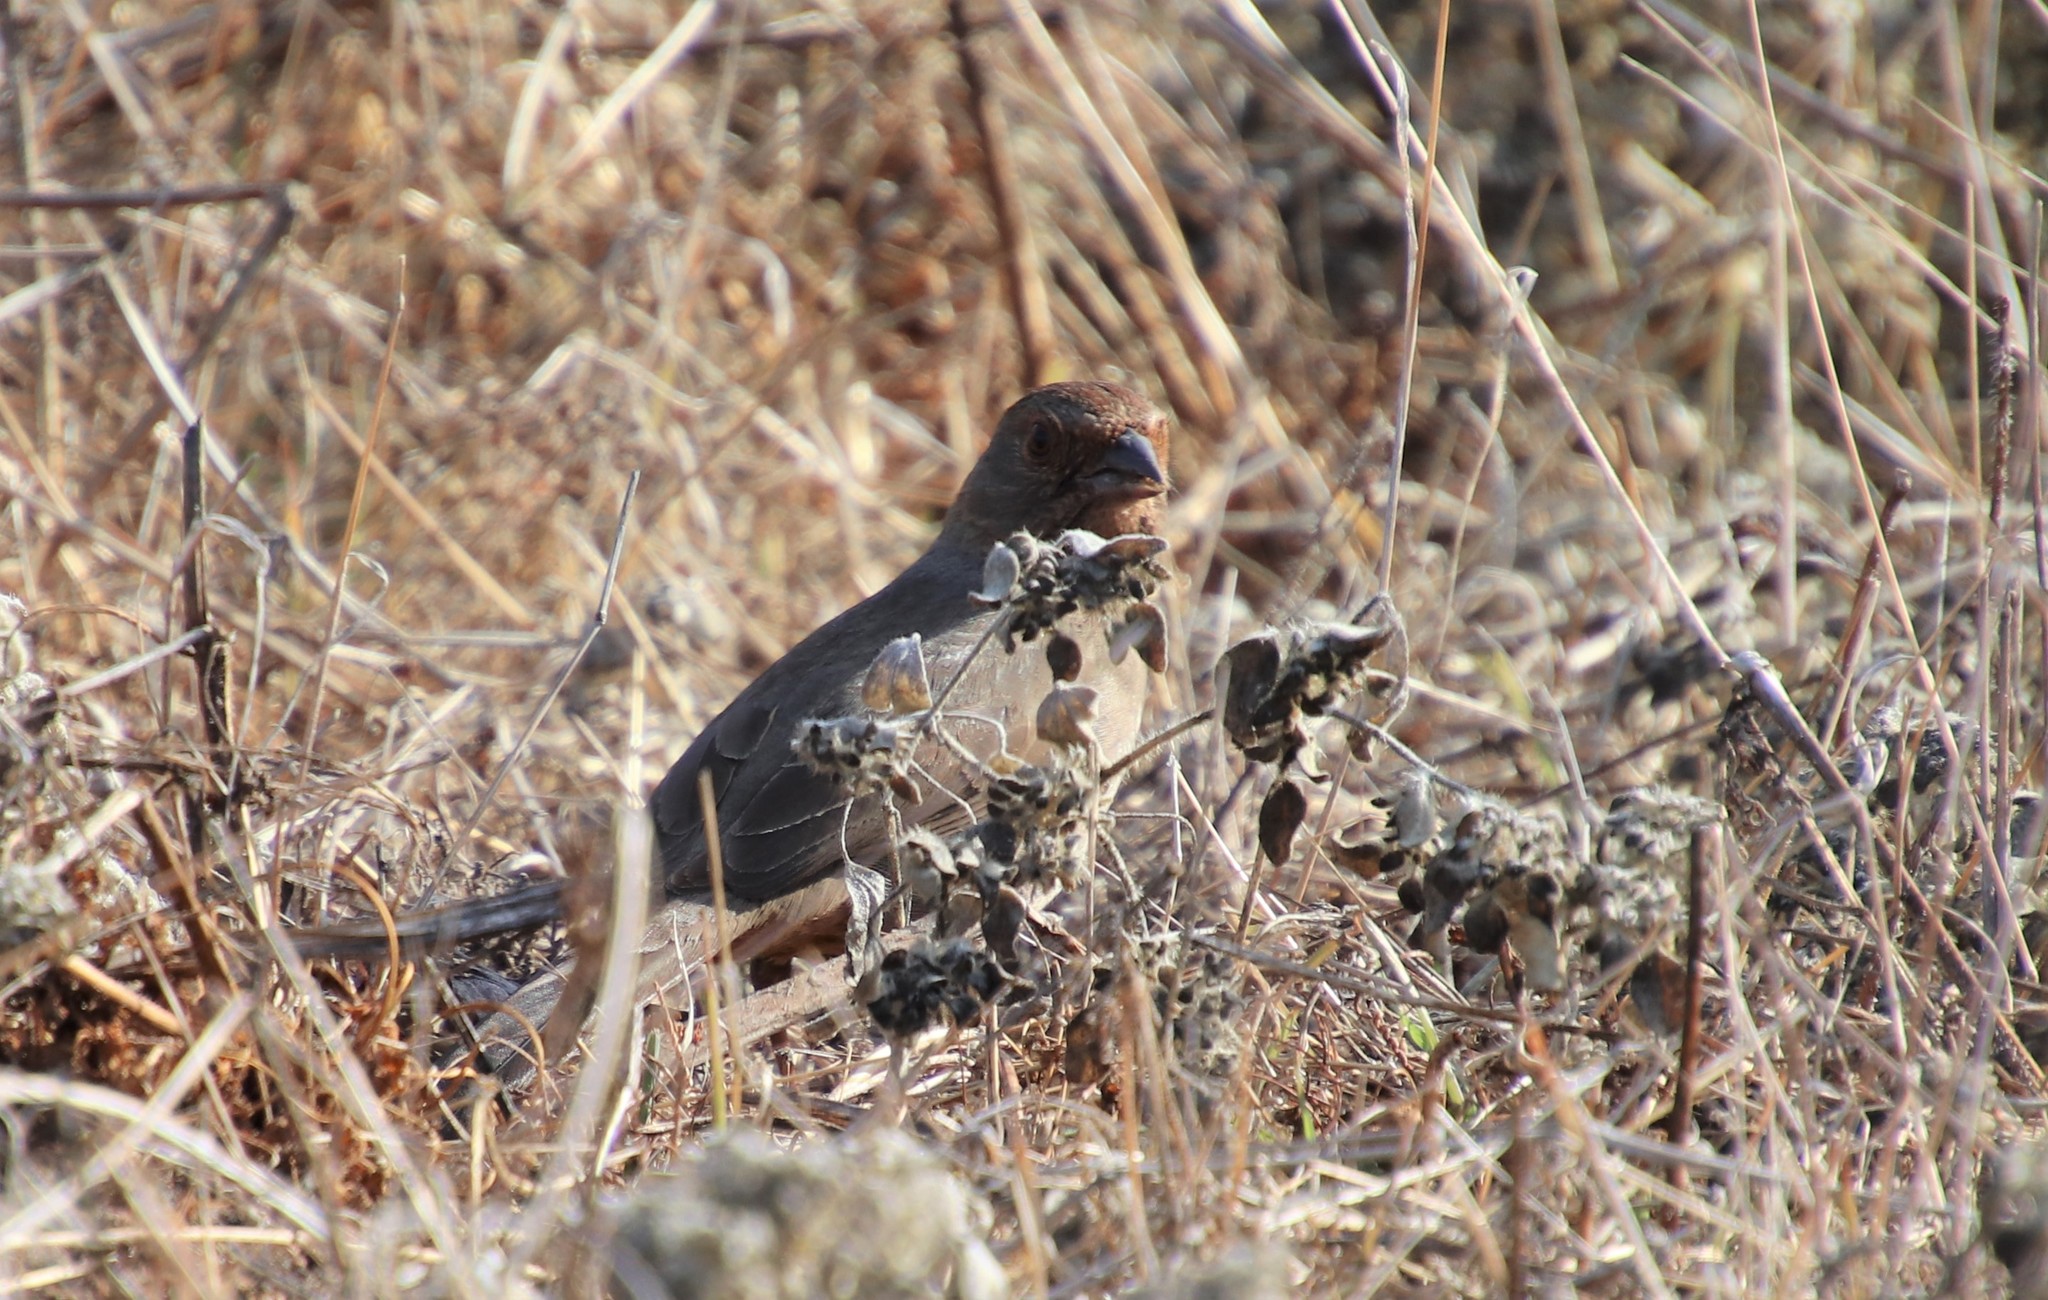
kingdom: Animalia
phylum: Chordata
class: Aves
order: Passeriformes
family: Passerellidae
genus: Melozone
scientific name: Melozone crissalis
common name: California towhee
